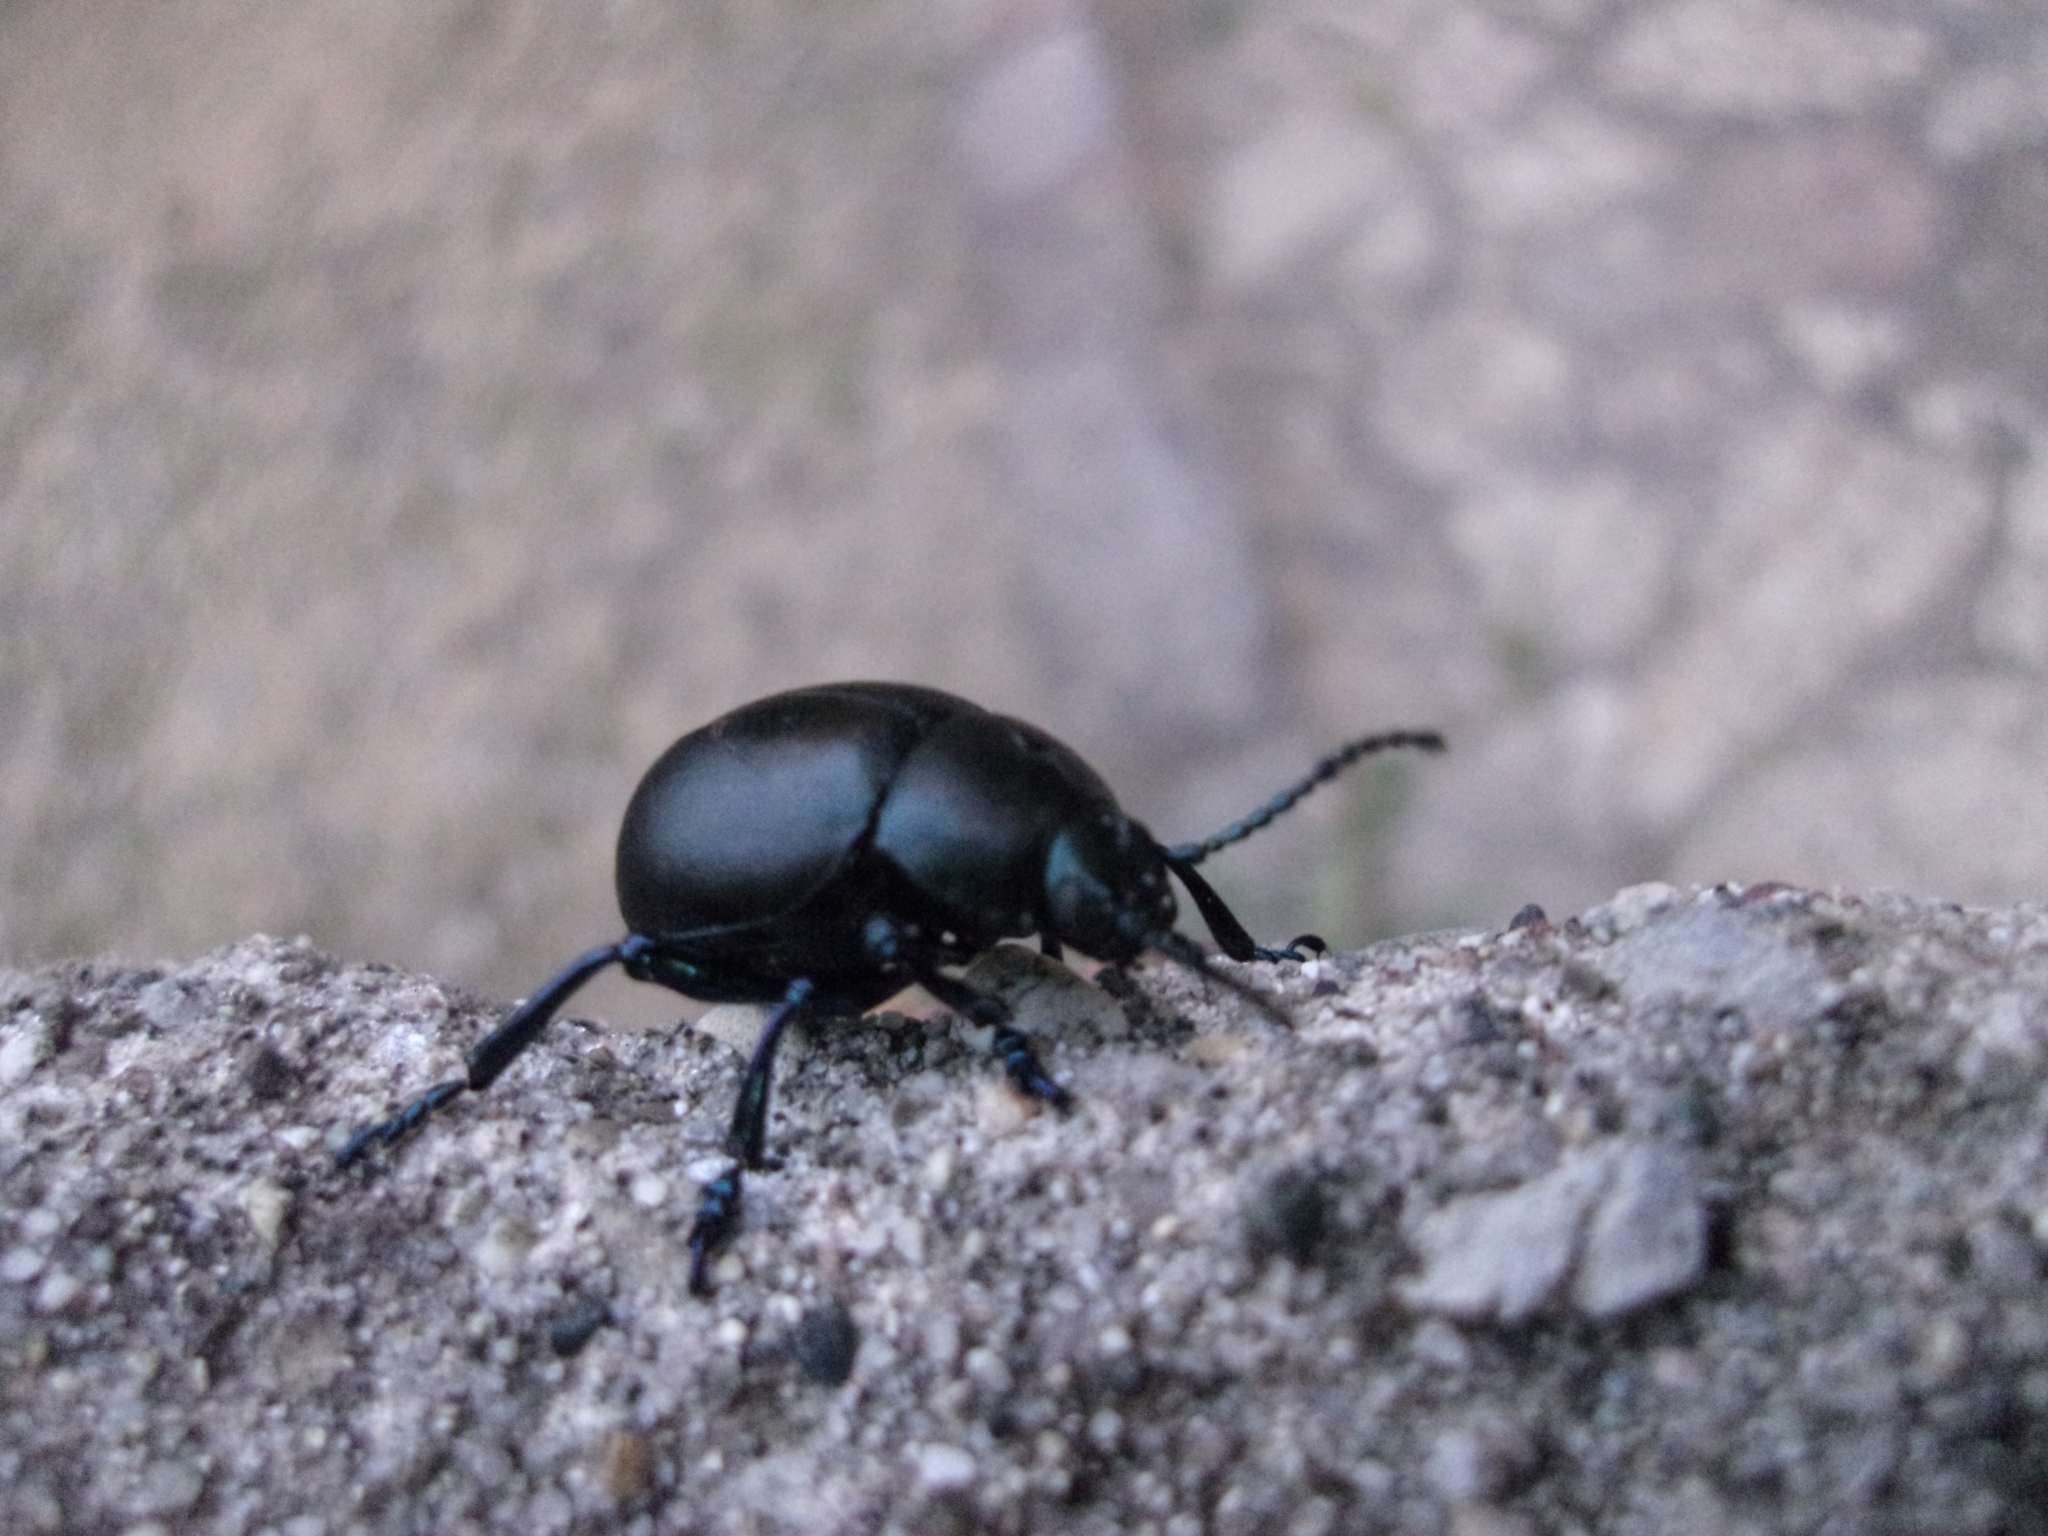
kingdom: Animalia
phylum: Arthropoda
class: Insecta
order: Coleoptera
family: Chrysomelidae
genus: Timarcha
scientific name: Timarcha tenebricosa
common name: Bloody-nosed beetle
